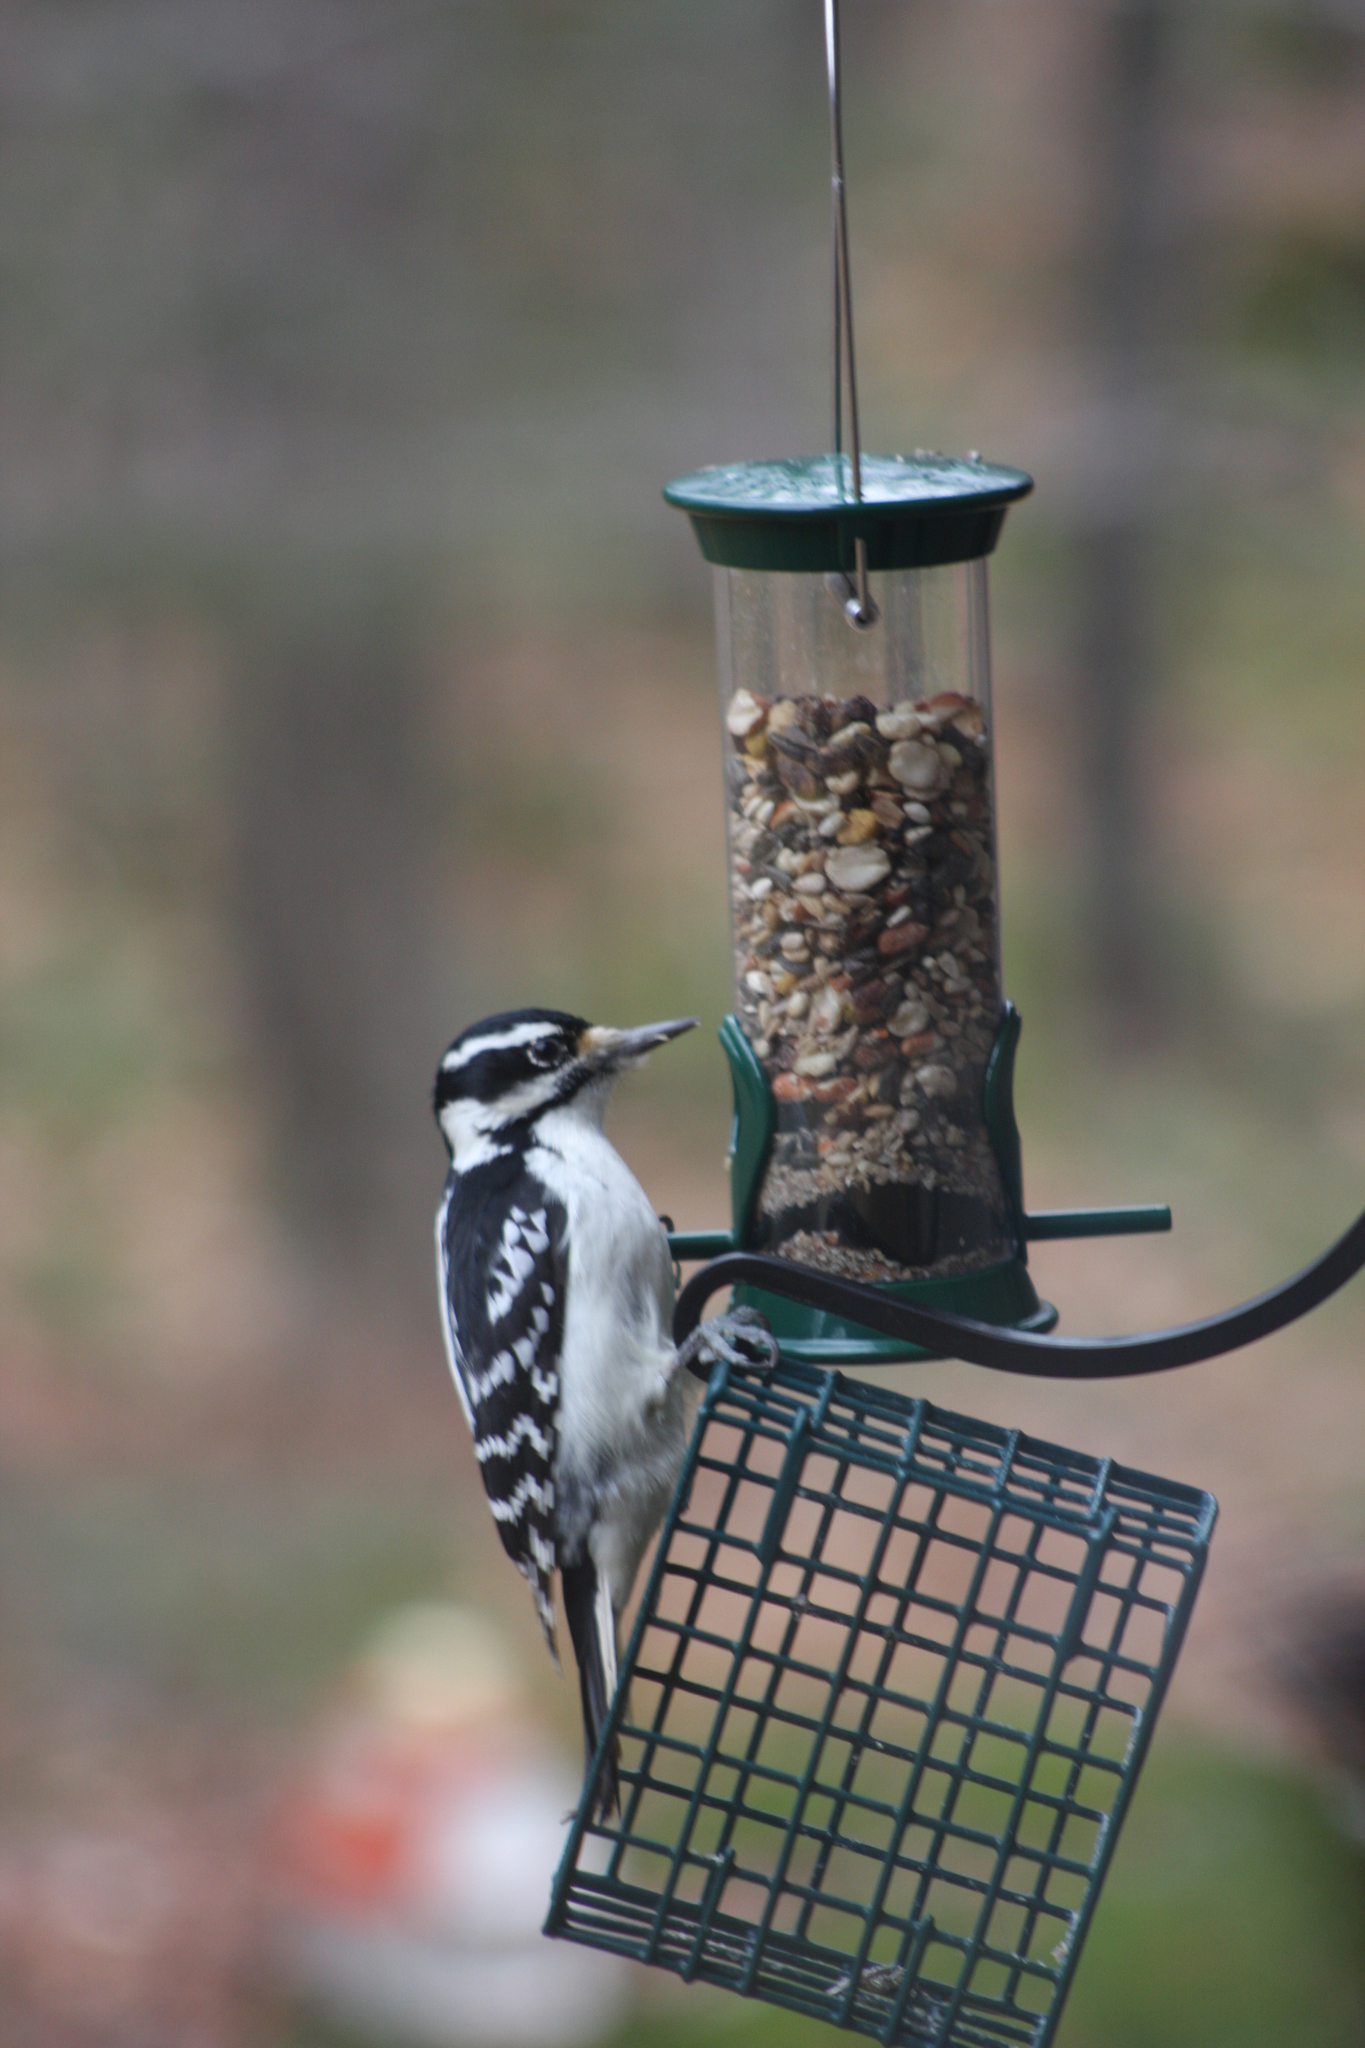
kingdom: Animalia
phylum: Chordata
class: Aves
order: Piciformes
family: Picidae
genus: Leuconotopicus
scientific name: Leuconotopicus villosus
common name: Hairy woodpecker
